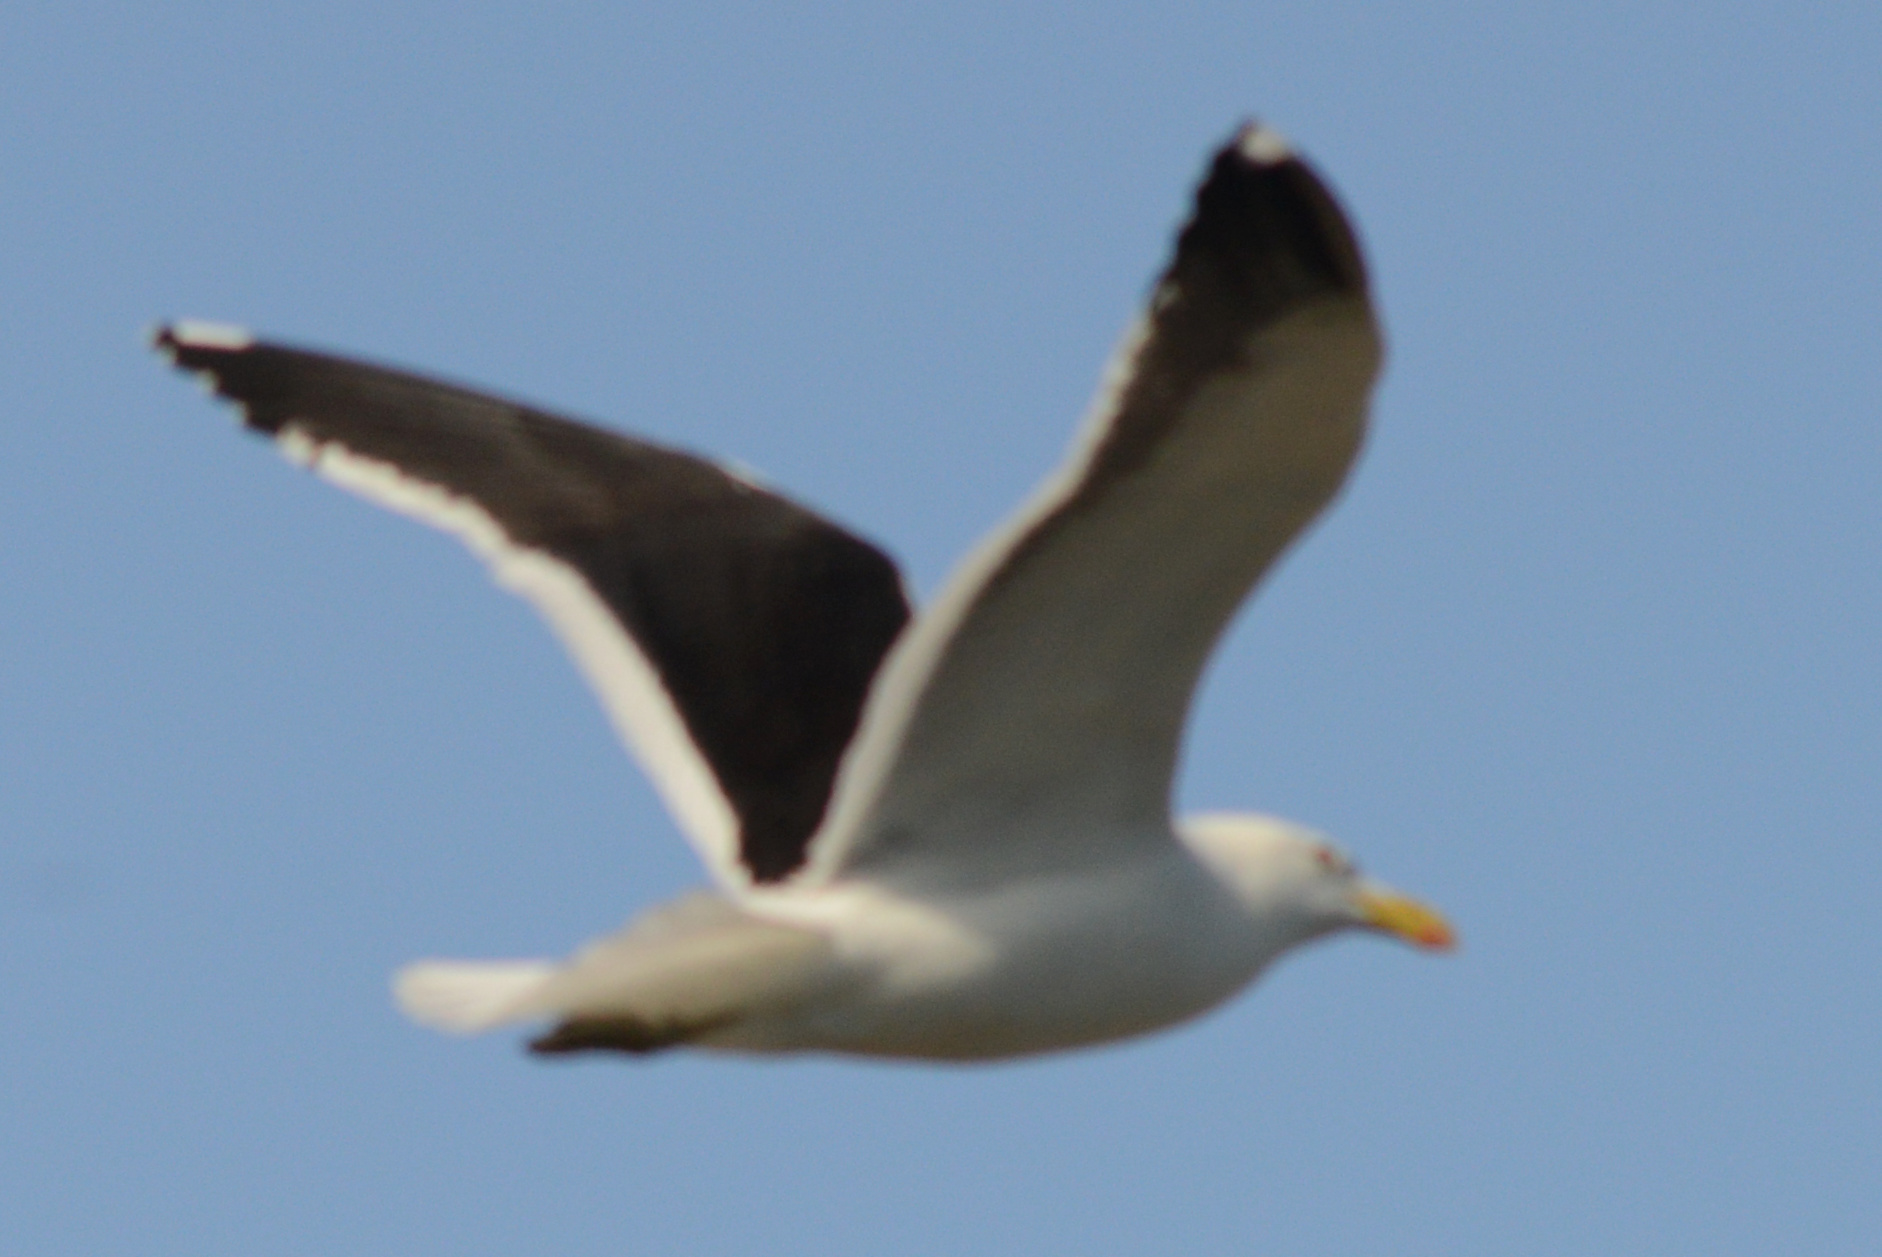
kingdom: Animalia
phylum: Chordata
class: Aves
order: Charadriiformes
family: Laridae
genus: Larus
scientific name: Larus dominicanus
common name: Kelp gull
